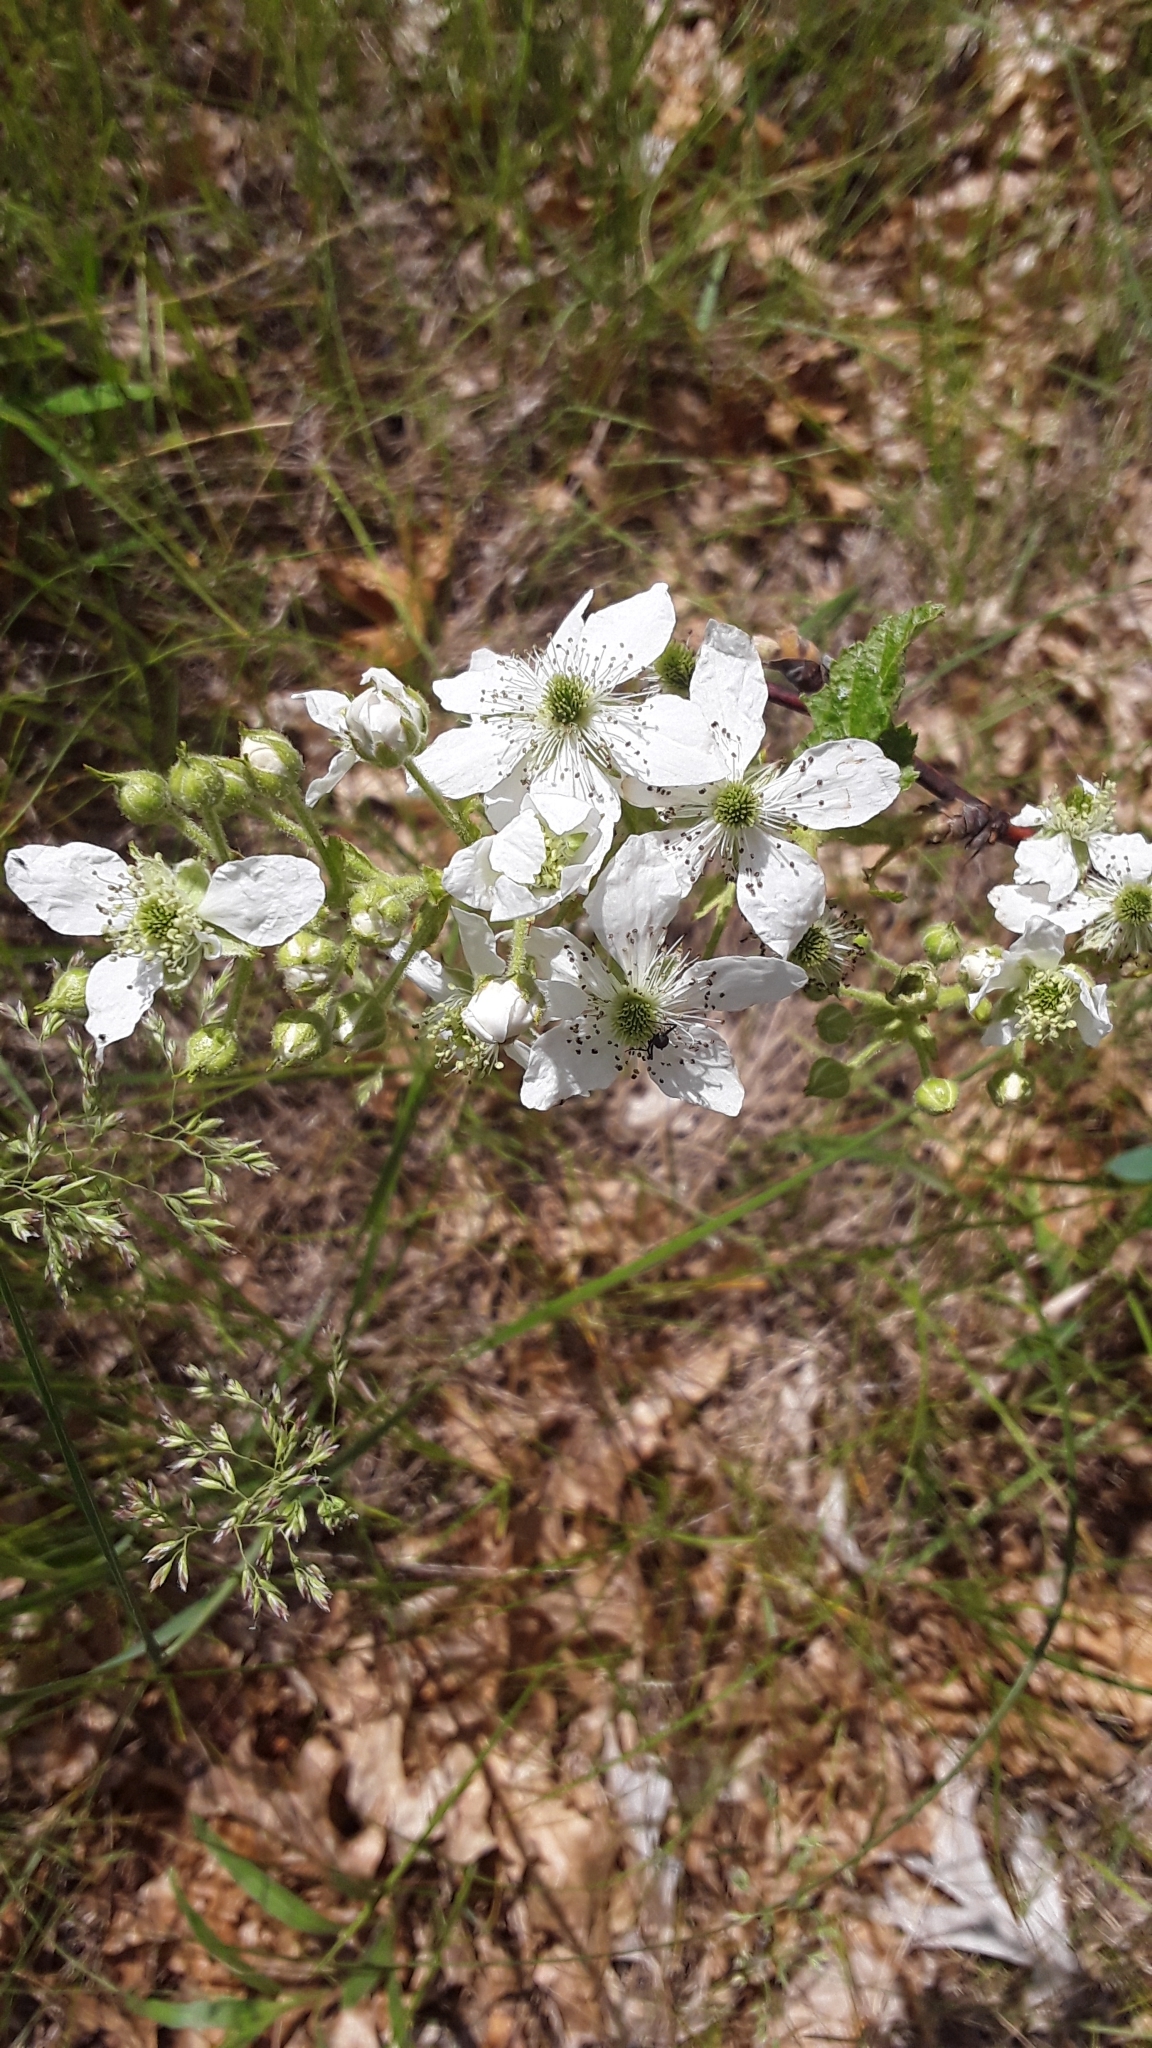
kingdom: Plantae
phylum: Tracheophyta
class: Magnoliopsida
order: Rosales
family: Rosaceae
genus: Rubus
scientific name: Rubus allegheniensis
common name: Allegheny blackberry
